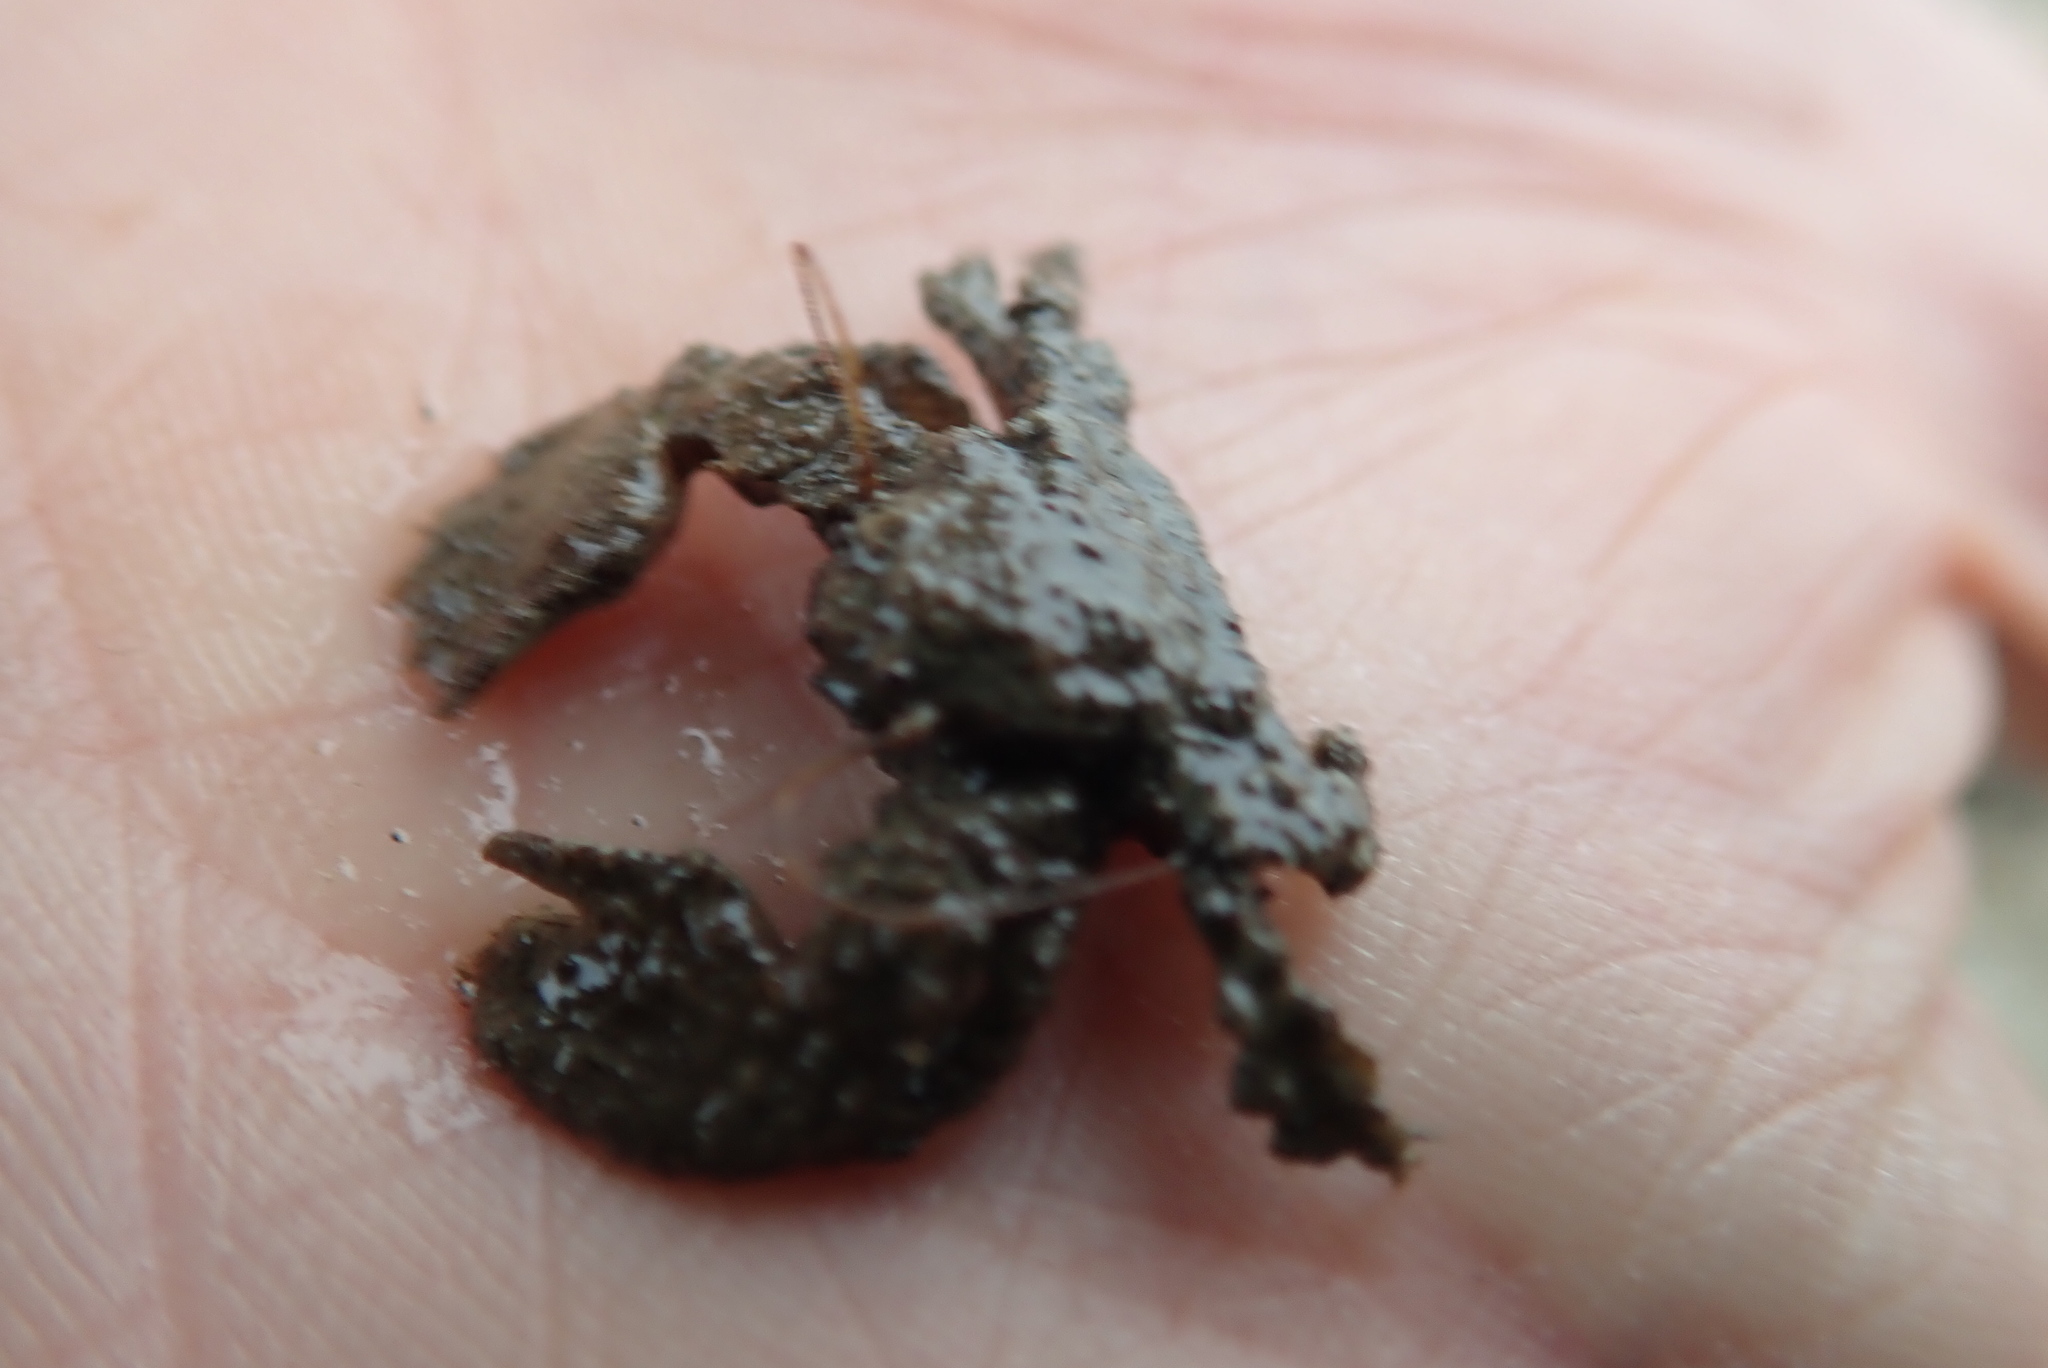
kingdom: Animalia
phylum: Arthropoda
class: Malacostraca
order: Decapoda
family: Porcellanidae
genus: Porcellana
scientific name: Porcellana platycheles
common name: Porcelain crab
